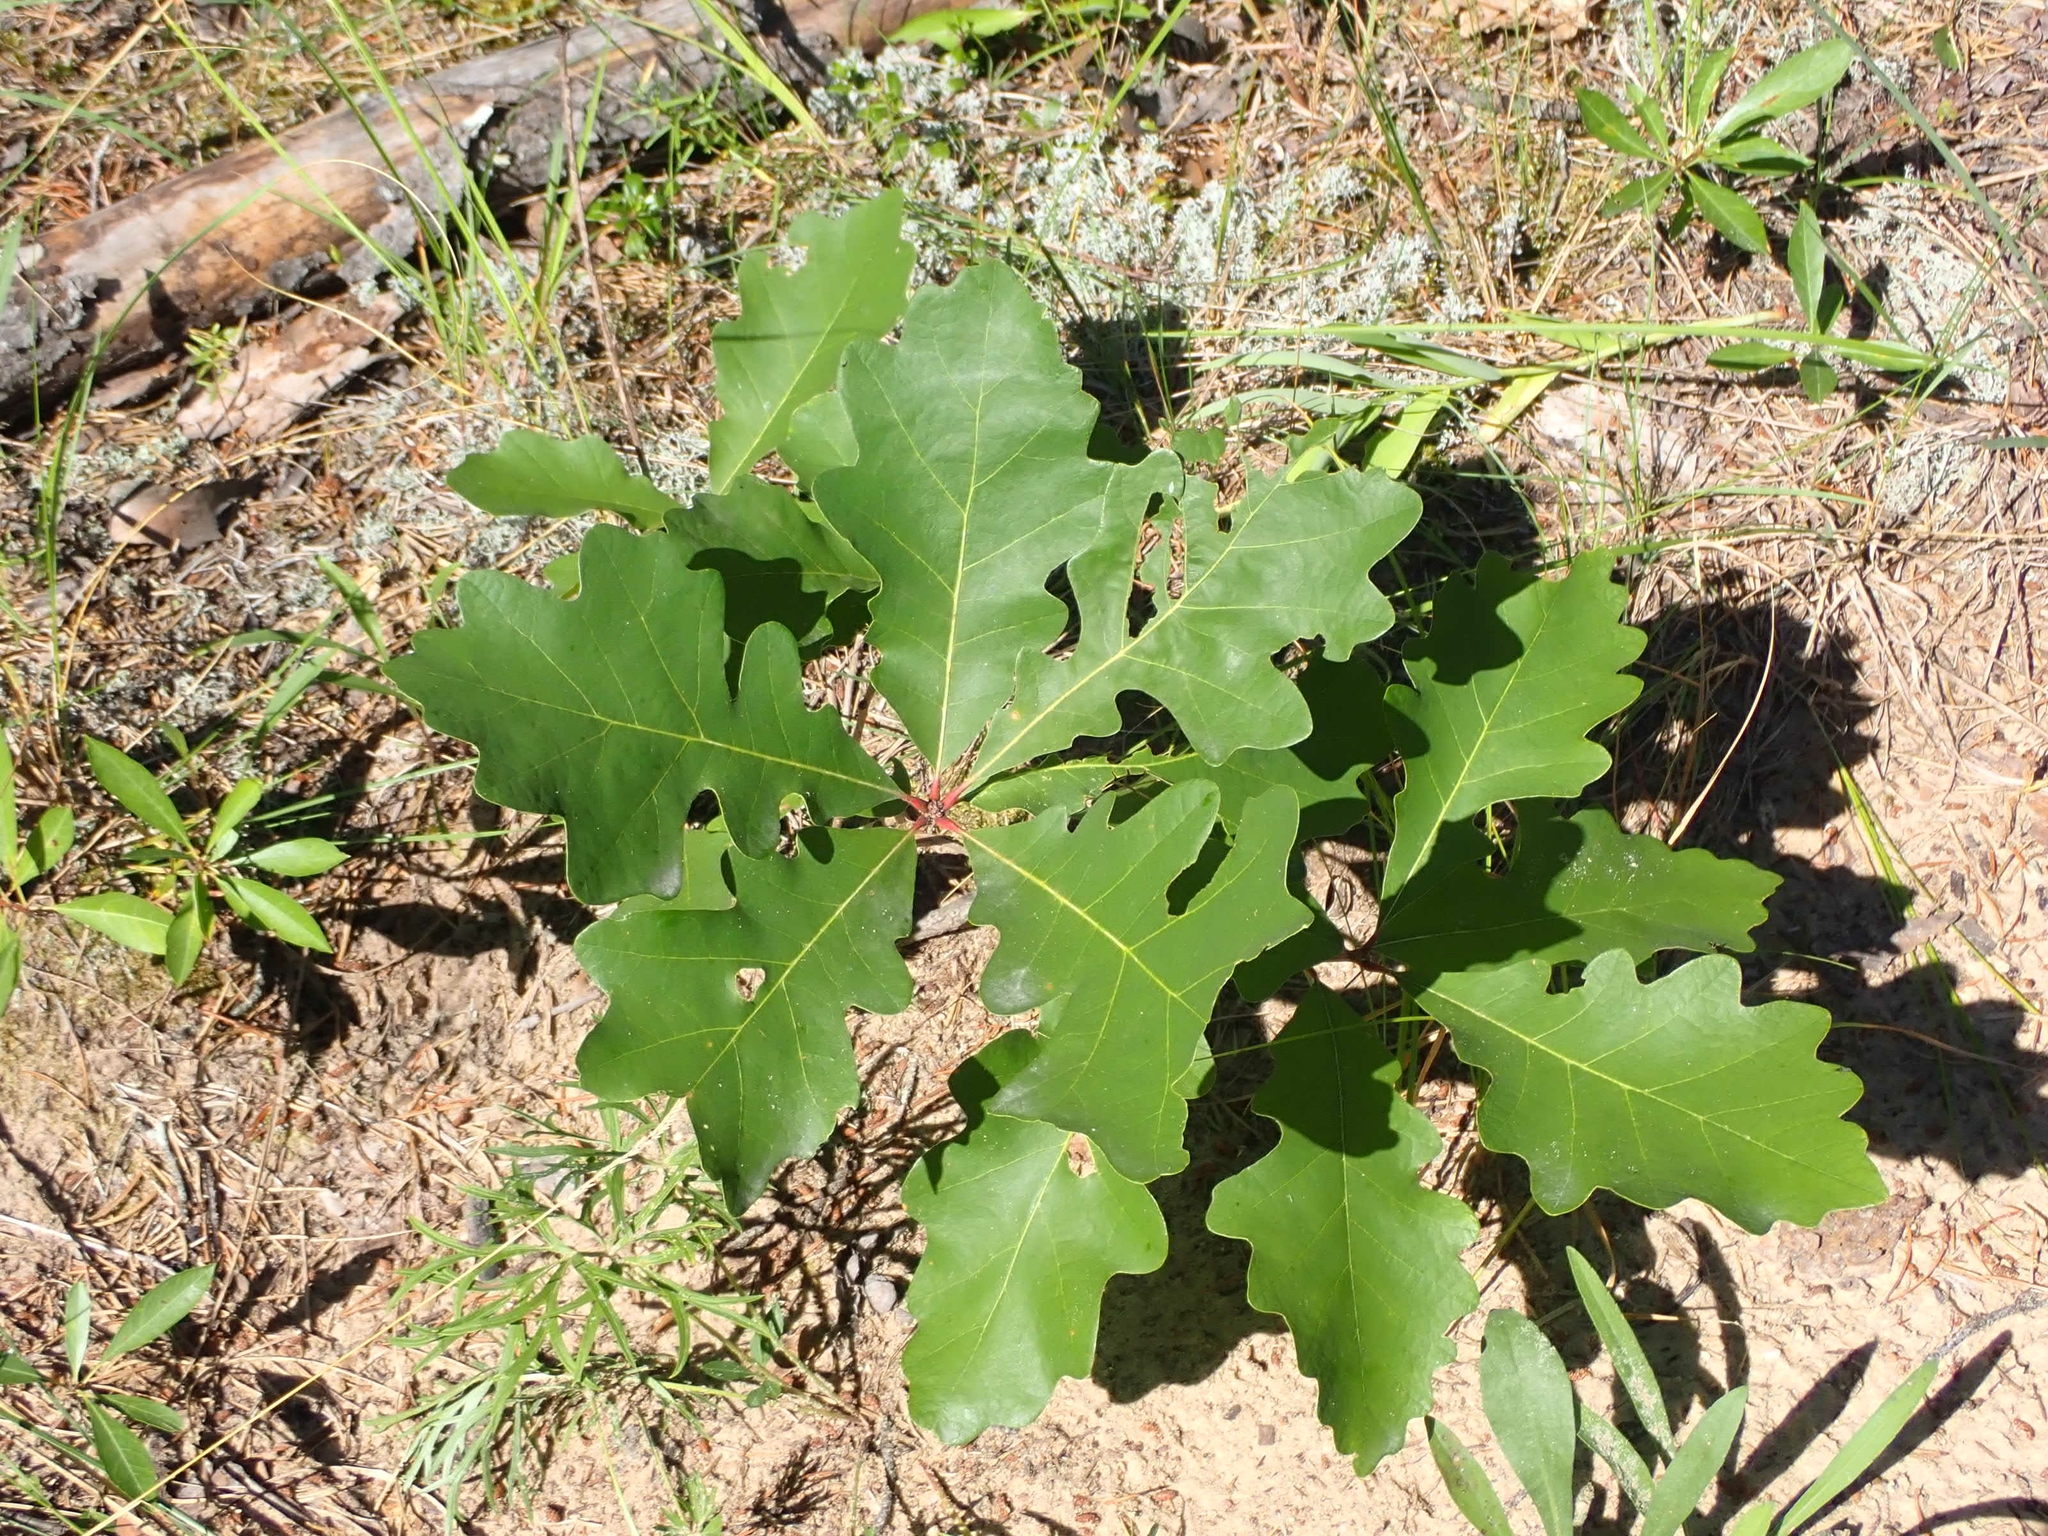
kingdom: Plantae
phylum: Tracheophyta
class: Magnoliopsida
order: Fagales
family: Fagaceae
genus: Quercus
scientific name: Quercus macrocarpa
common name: Bur oak
